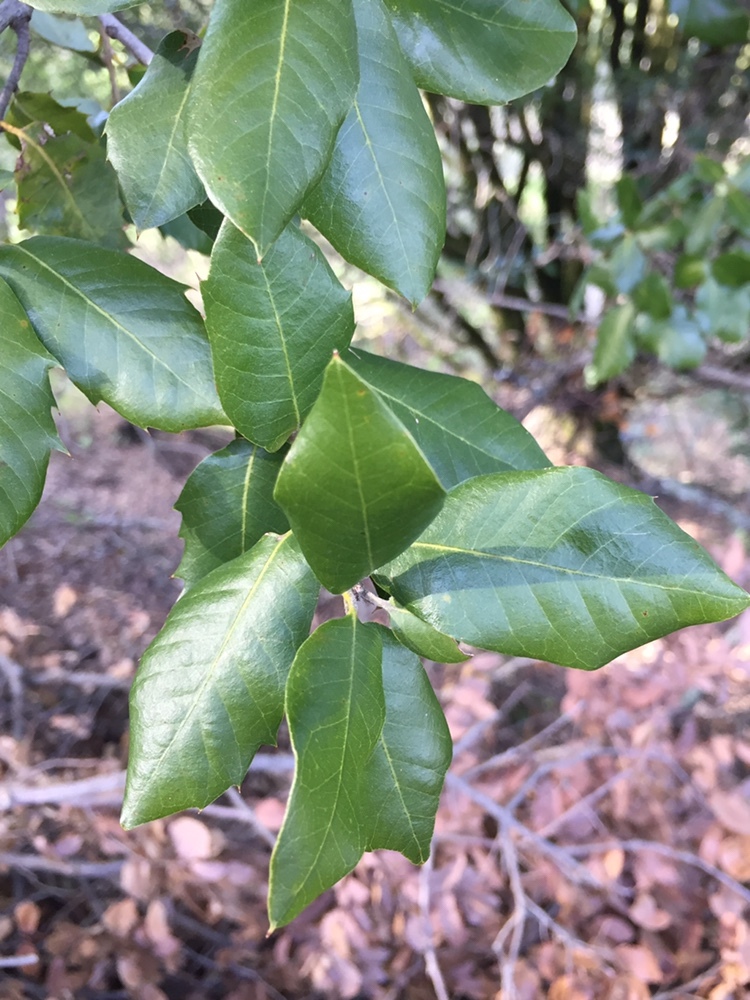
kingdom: Plantae
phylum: Tracheophyta
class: Magnoliopsida
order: Fagales
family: Fagaceae
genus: Quercus
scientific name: Quercus chrysolepis
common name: Canyon live oak
